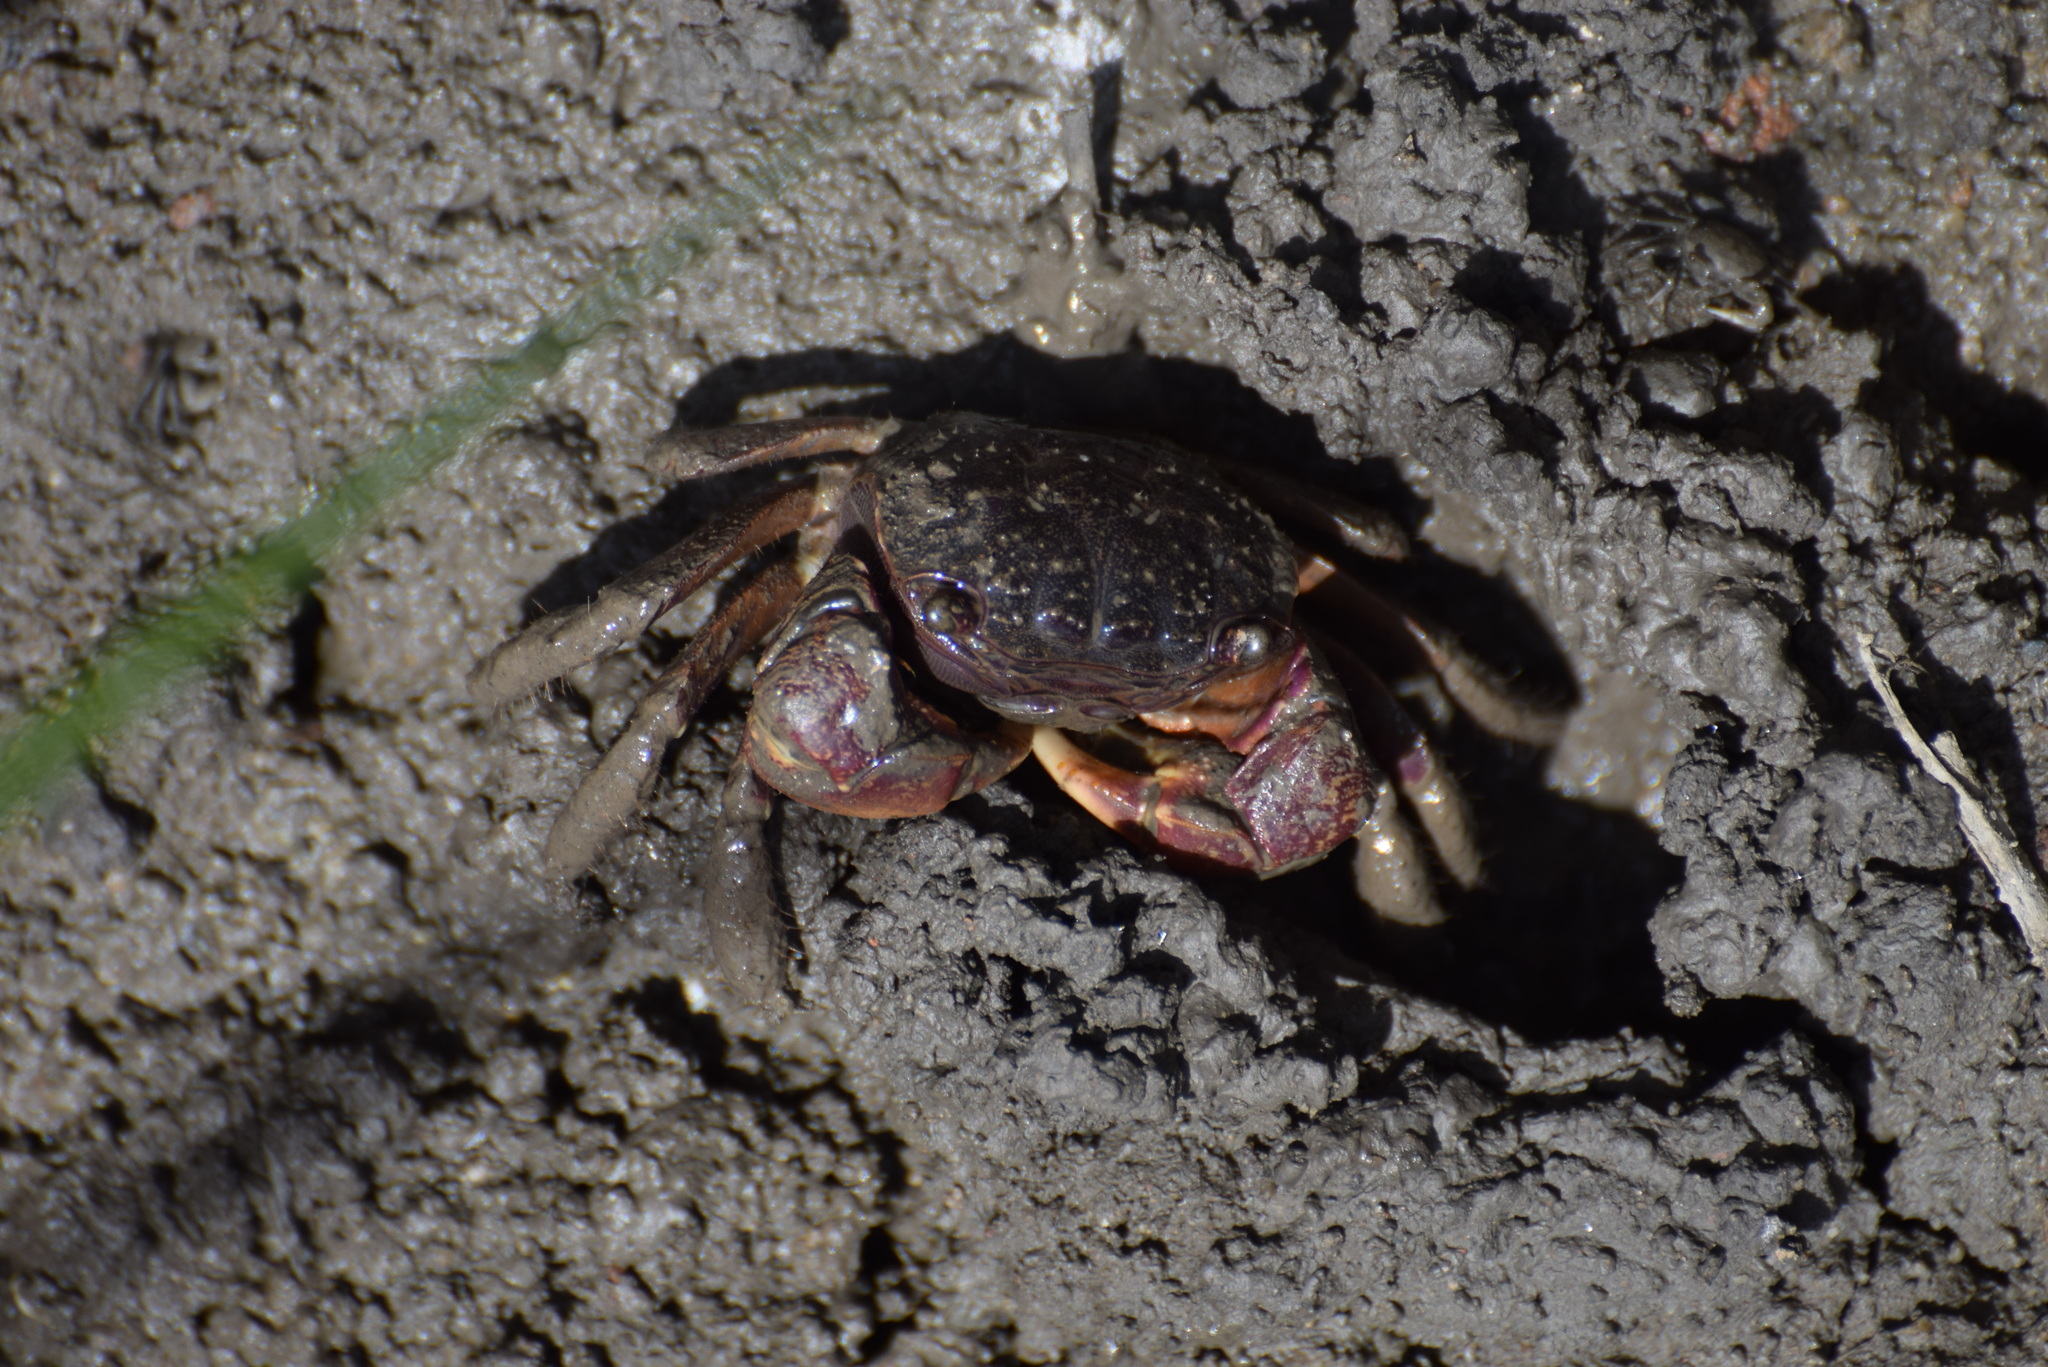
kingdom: Animalia
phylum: Arthropoda
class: Malacostraca
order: Decapoda
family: Sesarmidae
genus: Sesarma
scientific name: Sesarma reticulatum
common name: Heavy marsh crab
